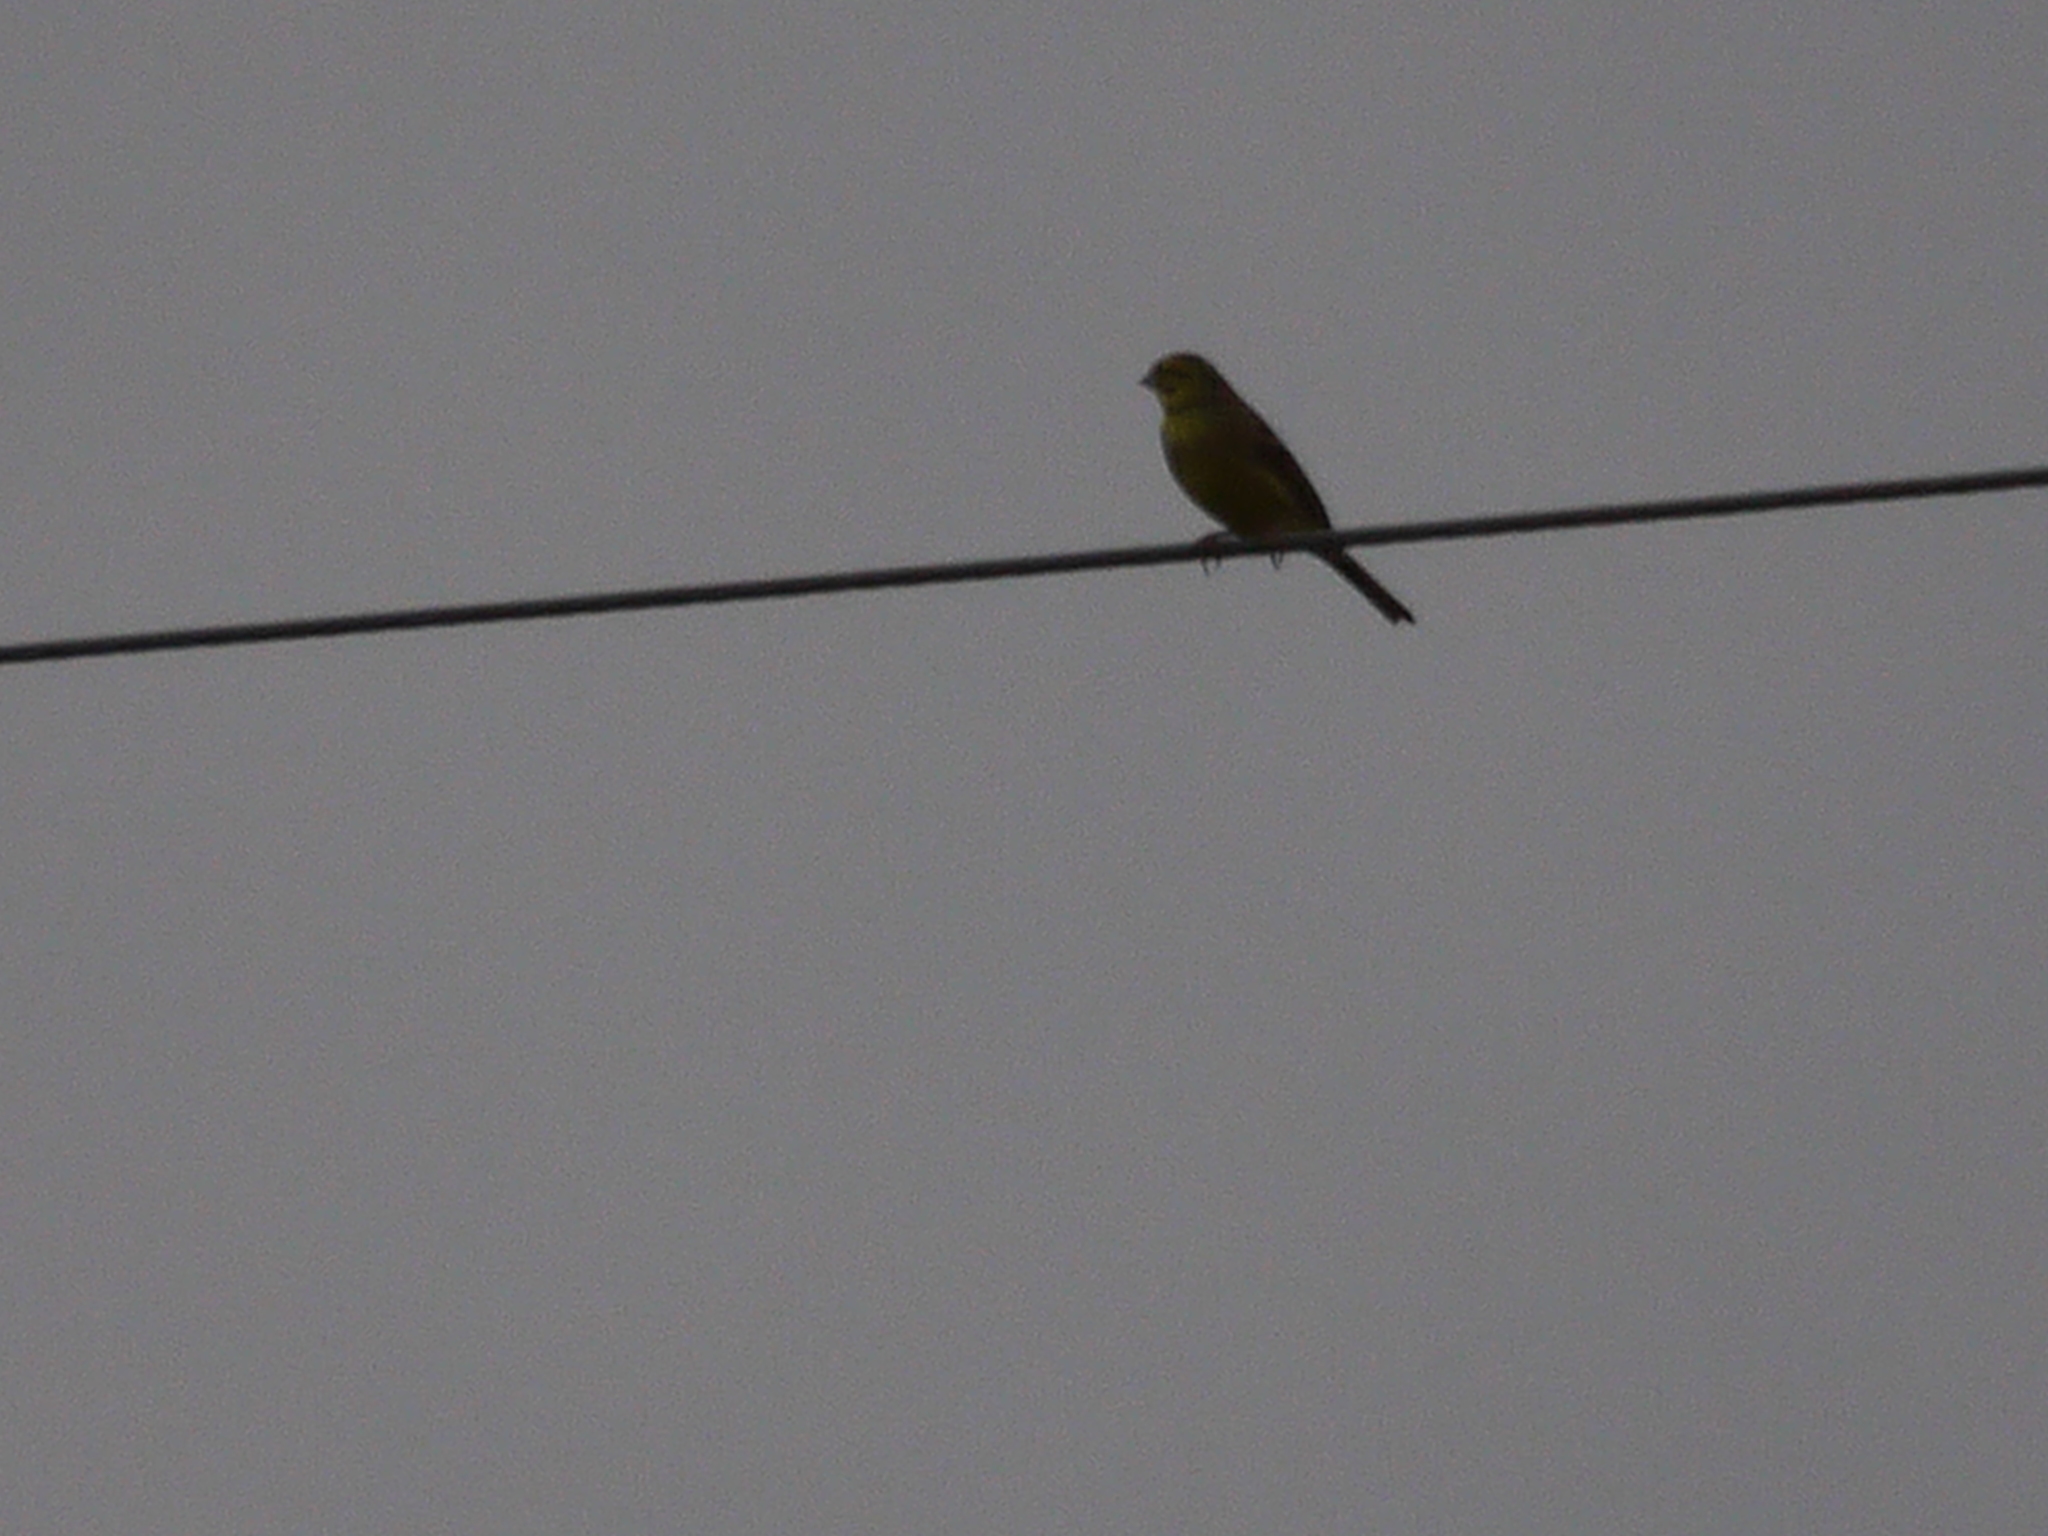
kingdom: Animalia
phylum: Chordata
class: Aves
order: Passeriformes
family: Emberizidae
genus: Emberiza
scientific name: Emberiza citrinella
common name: Yellowhammer
